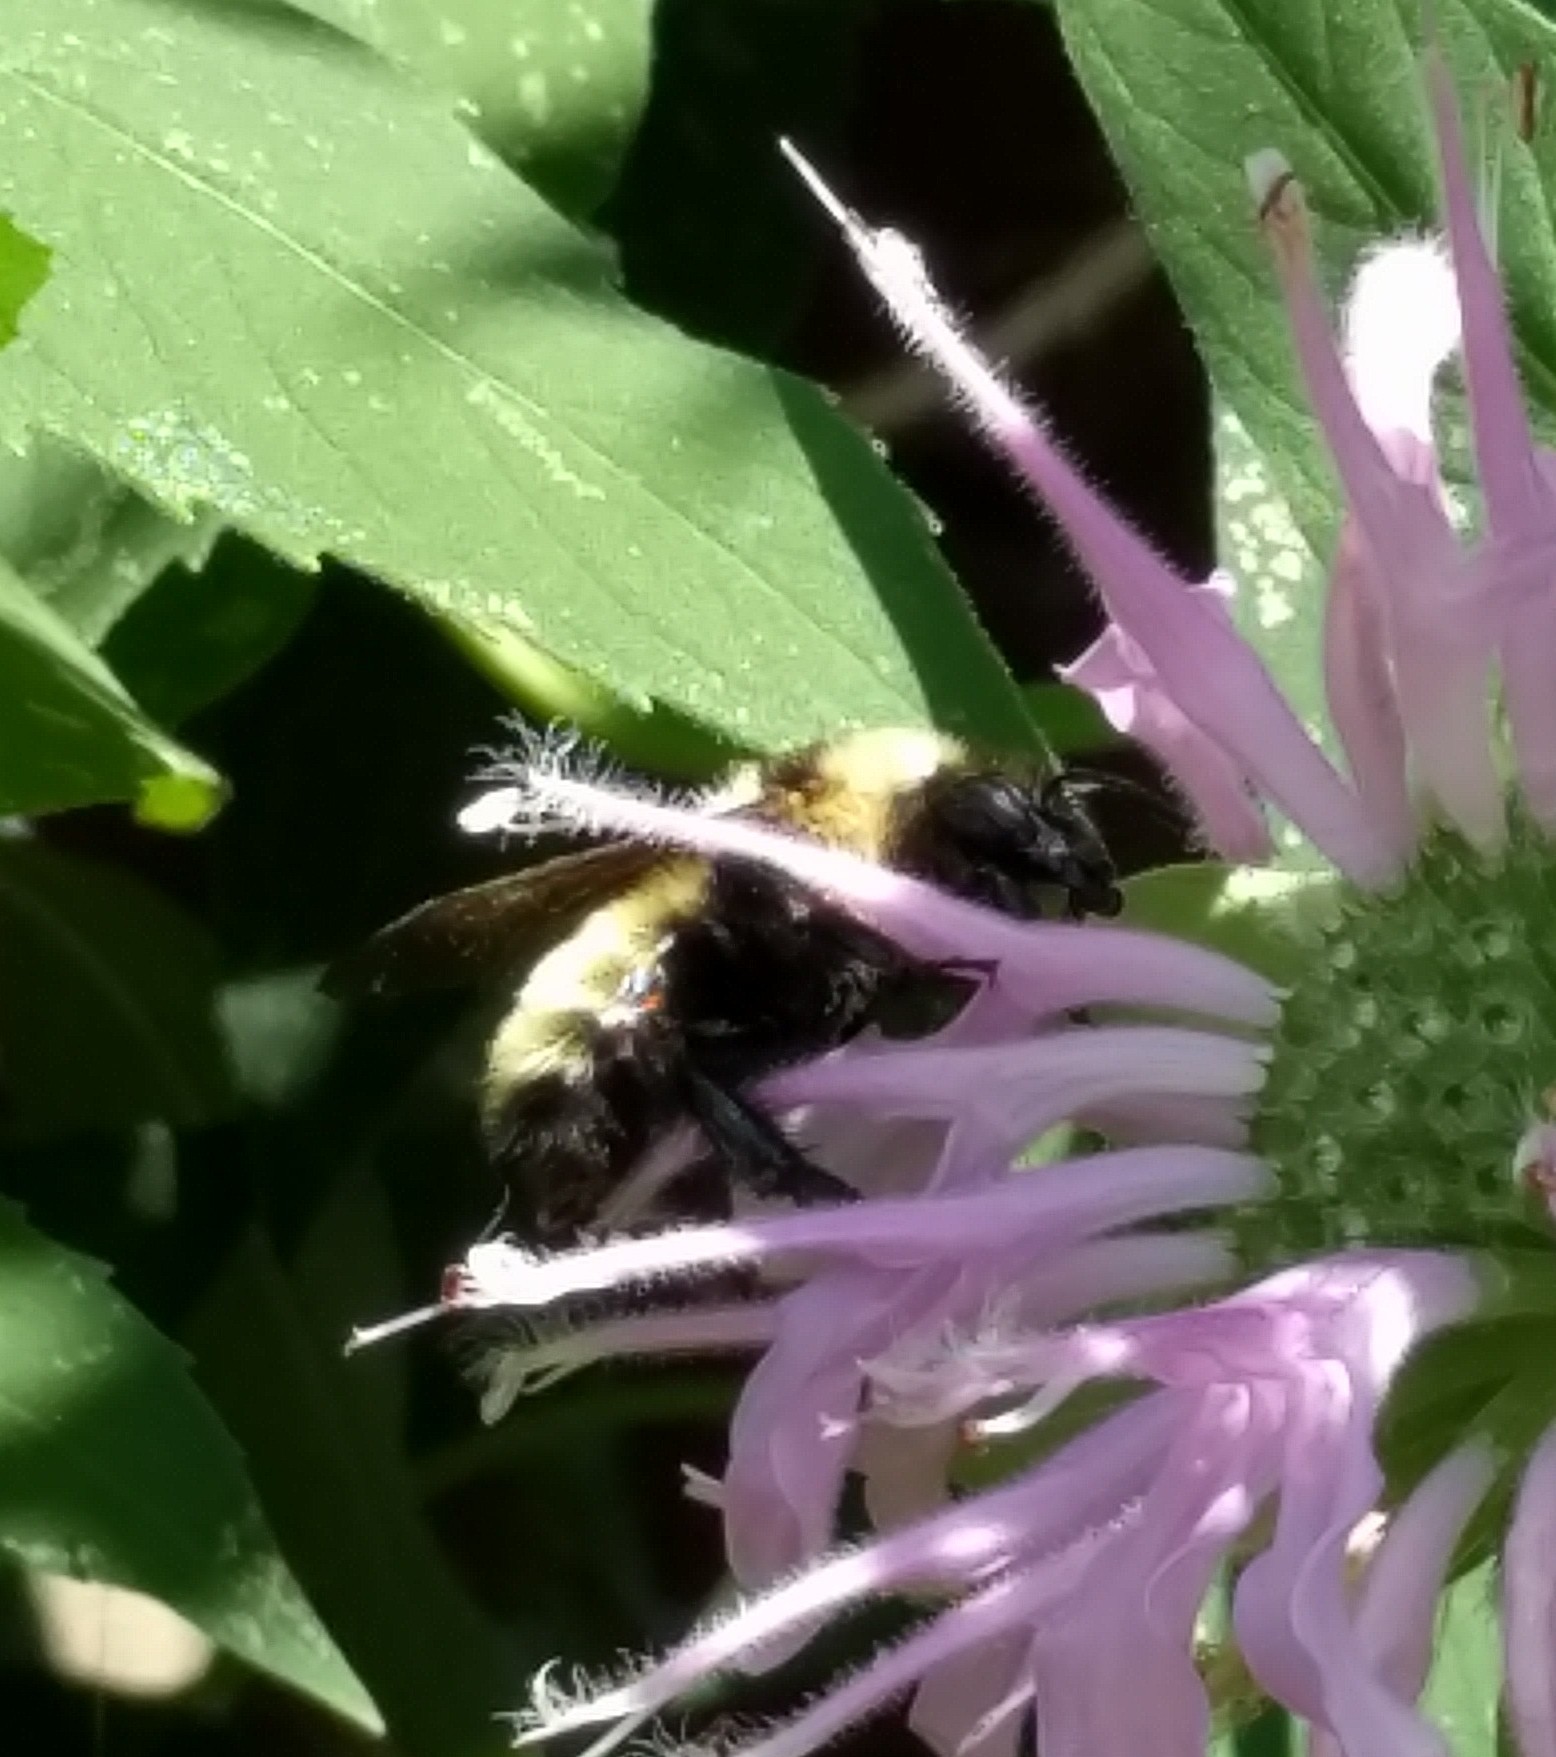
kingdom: Animalia
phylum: Arthropoda
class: Insecta
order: Hymenoptera
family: Apidae
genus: Bombus
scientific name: Bombus fervidus
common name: Yellow bumble bee
